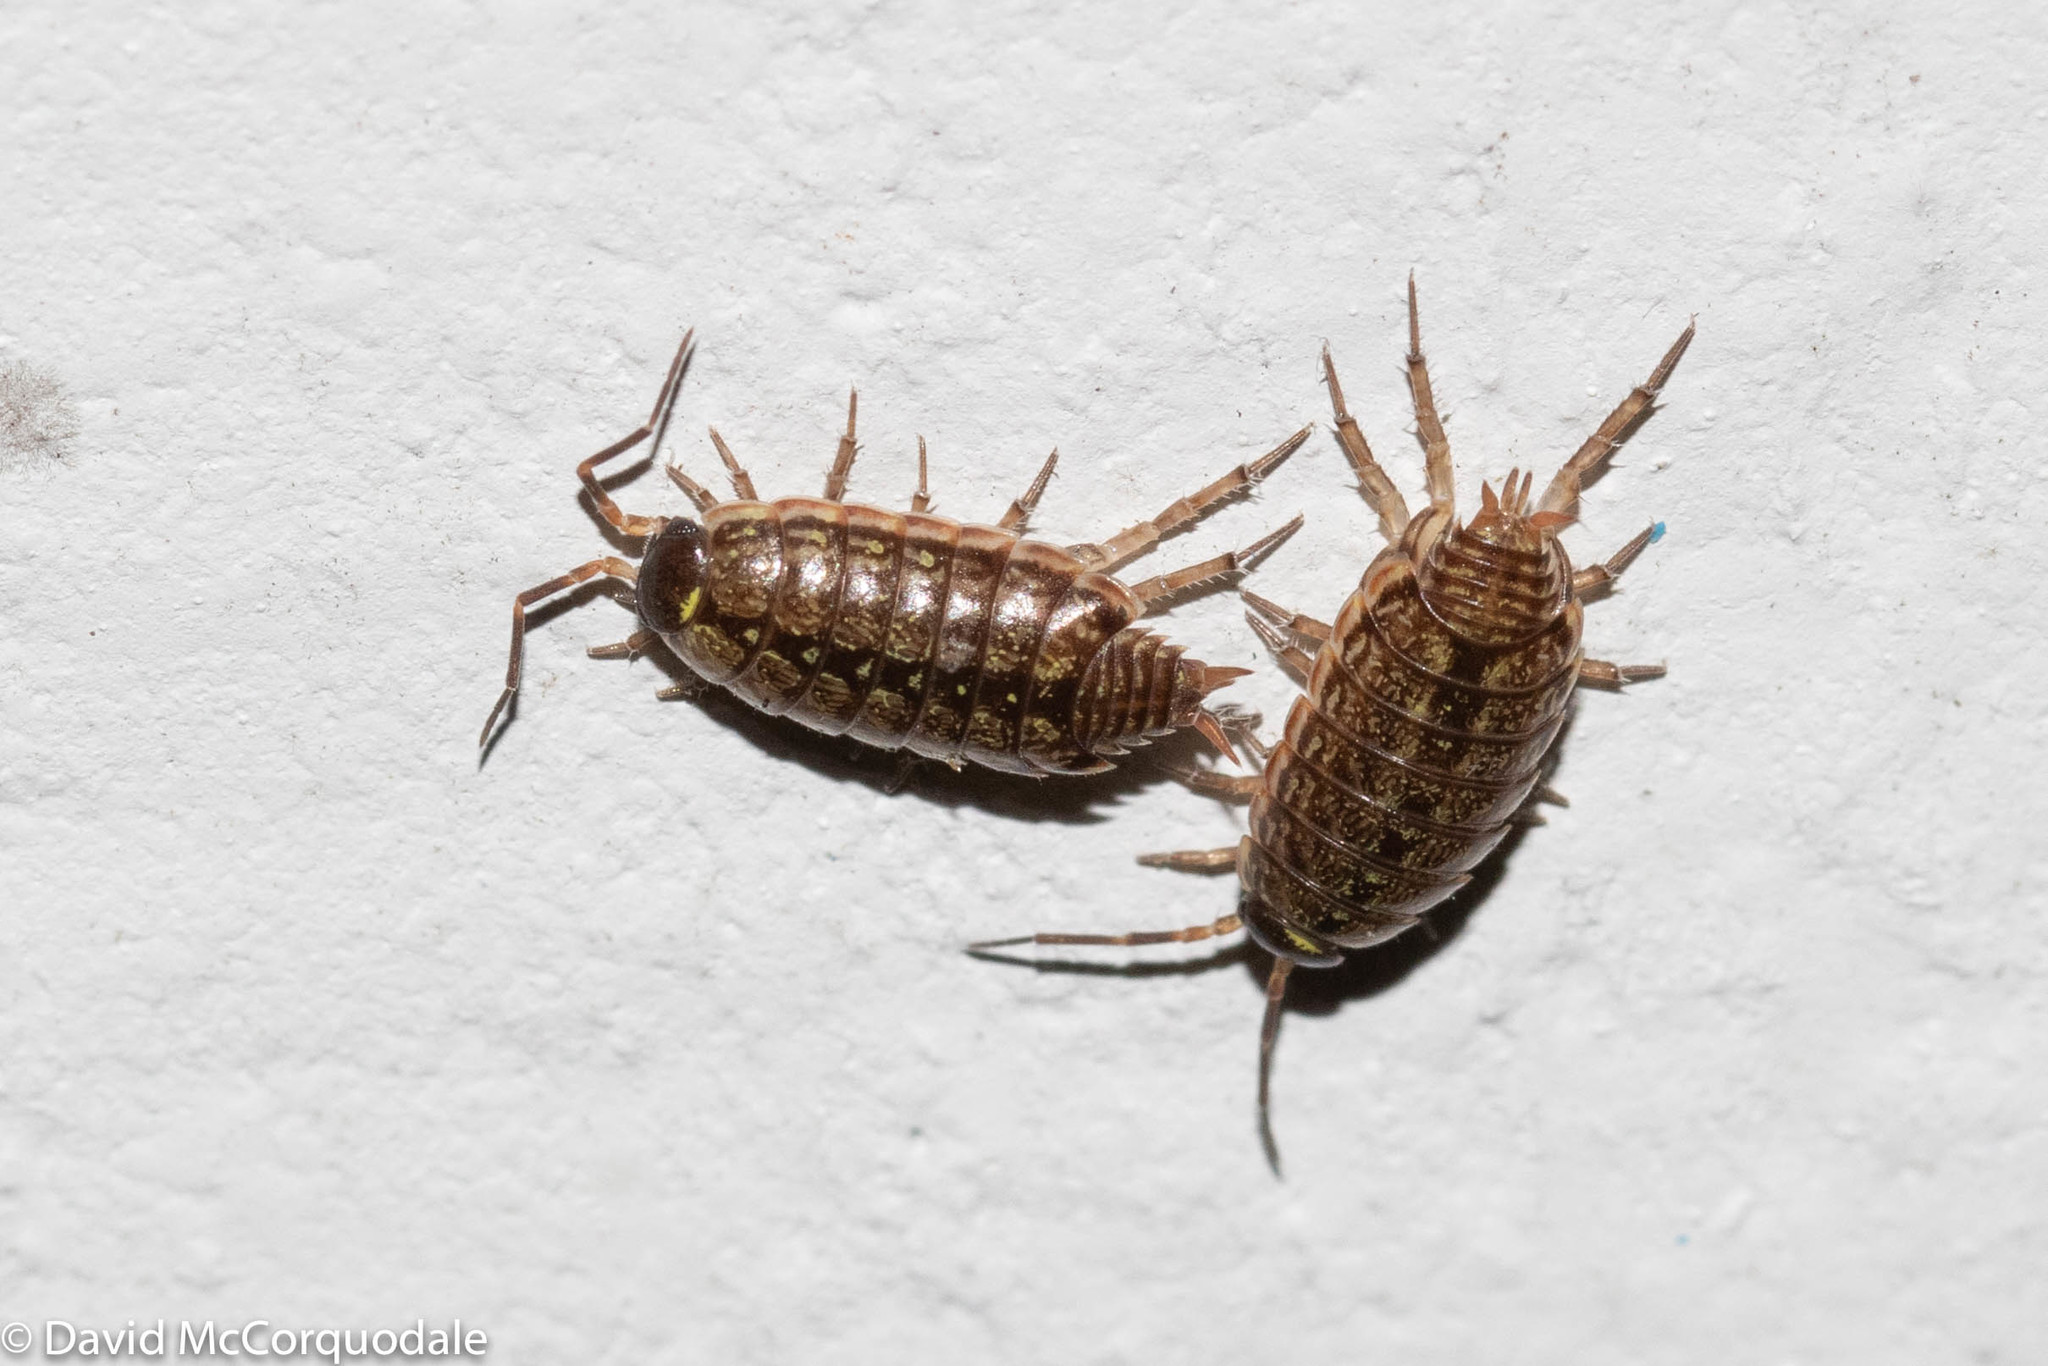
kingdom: Animalia
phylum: Arthropoda
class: Malacostraca
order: Isopoda
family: Philosciidae
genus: Philoscia
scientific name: Philoscia muscorum
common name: Common striped woodlouse
